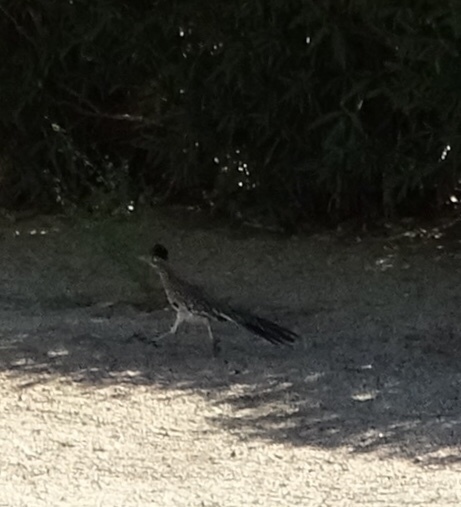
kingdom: Animalia
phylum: Chordata
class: Aves
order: Cuculiformes
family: Cuculidae
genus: Geococcyx
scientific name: Geococcyx californianus
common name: Greater roadrunner
